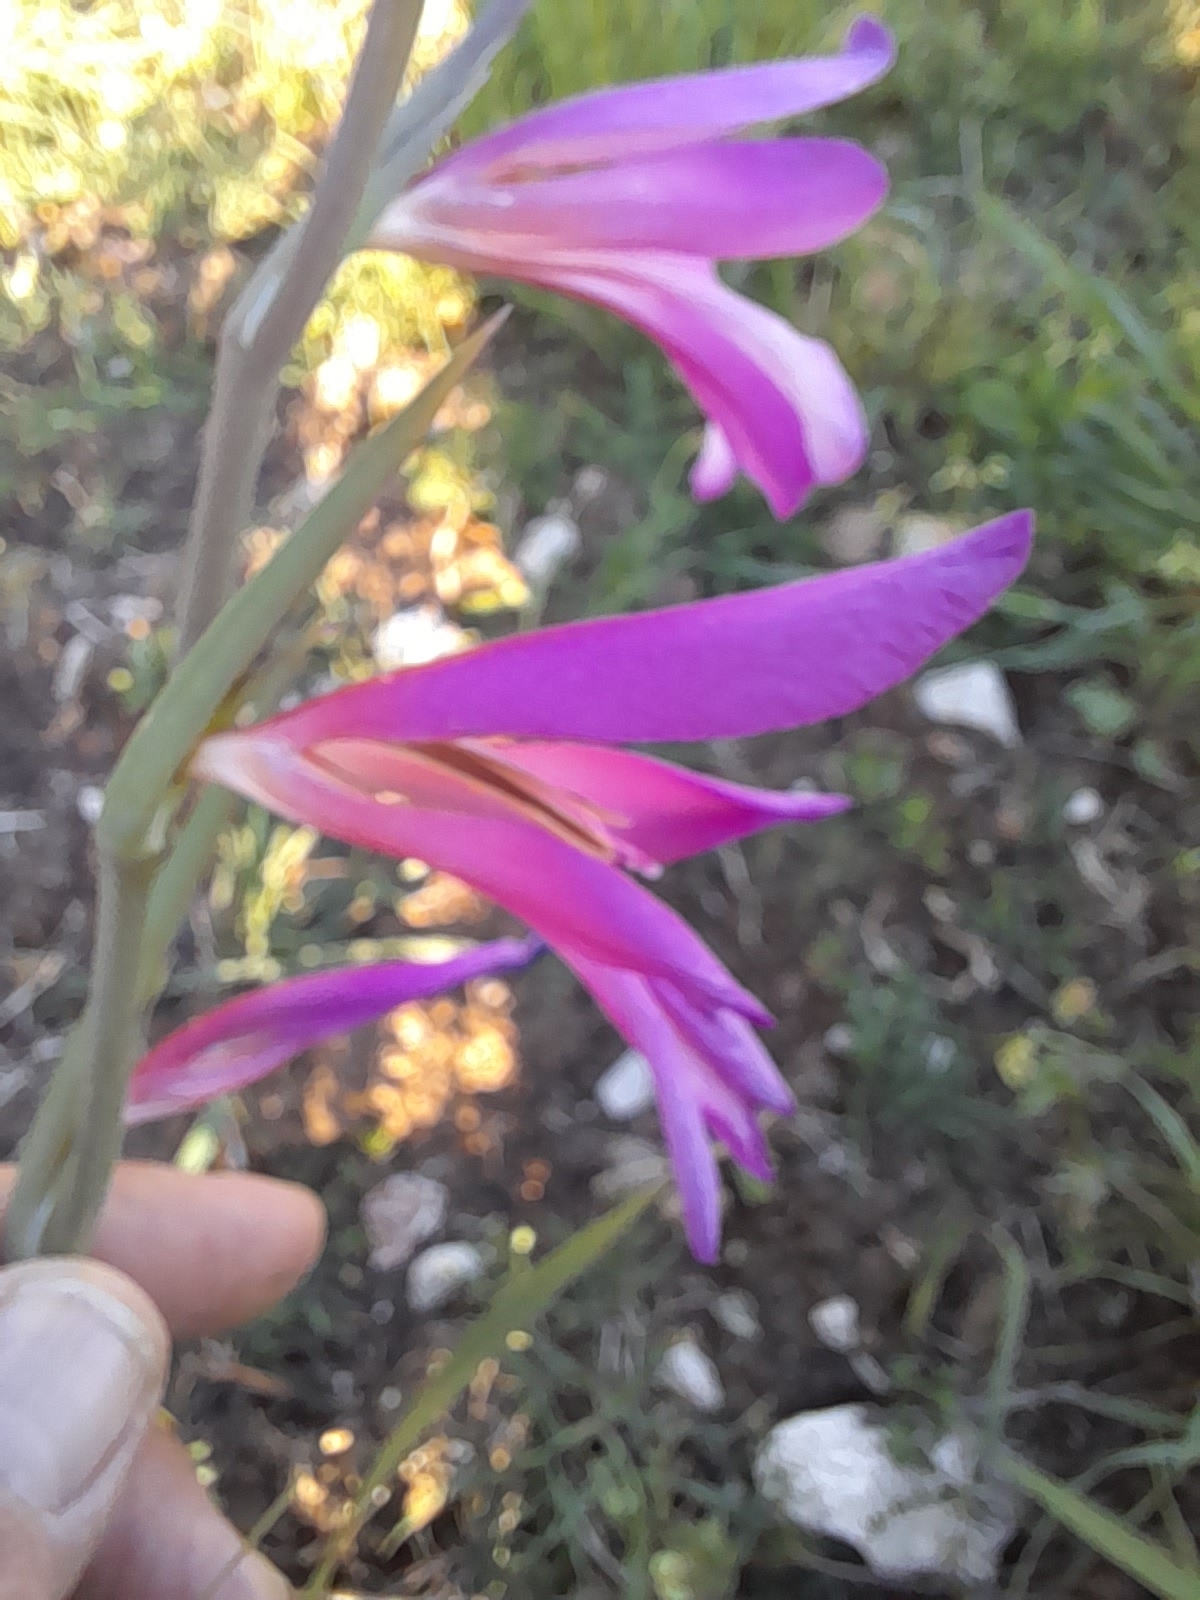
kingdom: Plantae
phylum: Tracheophyta
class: Liliopsida
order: Asparagales
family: Iridaceae
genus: Gladiolus
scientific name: Gladiolus italicus
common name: Field gladiolus
